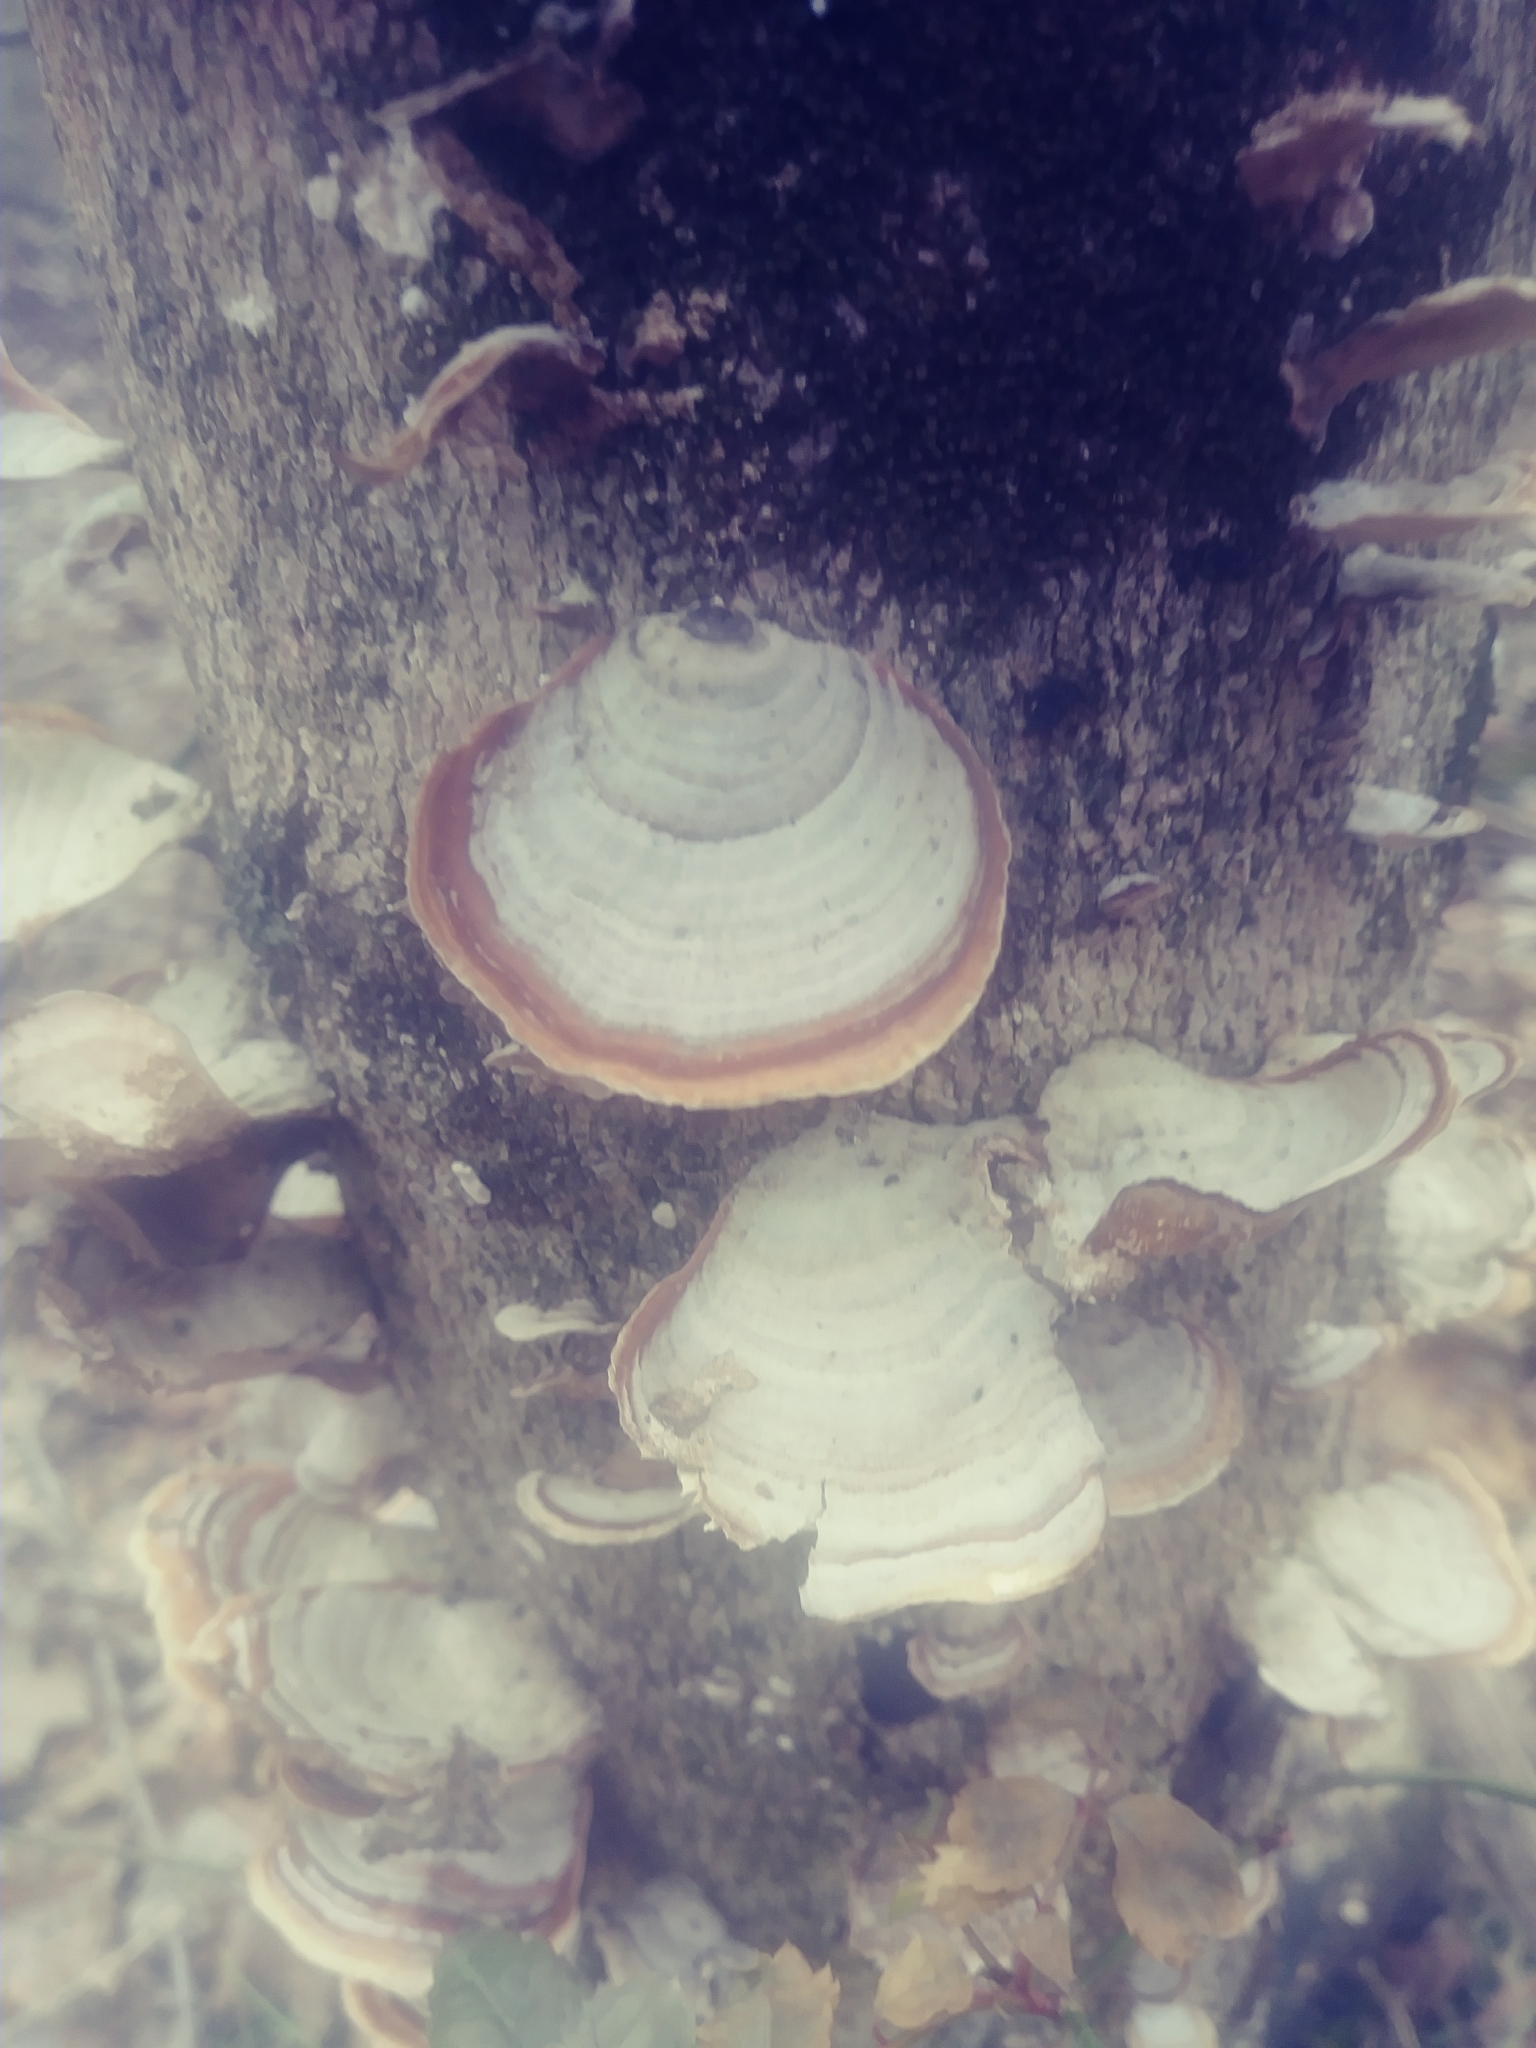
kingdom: Fungi
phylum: Basidiomycota
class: Agaricomycetes
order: Russulales
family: Stereaceae
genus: Stereum
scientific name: Stereum ostrea
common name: False turkeytail
